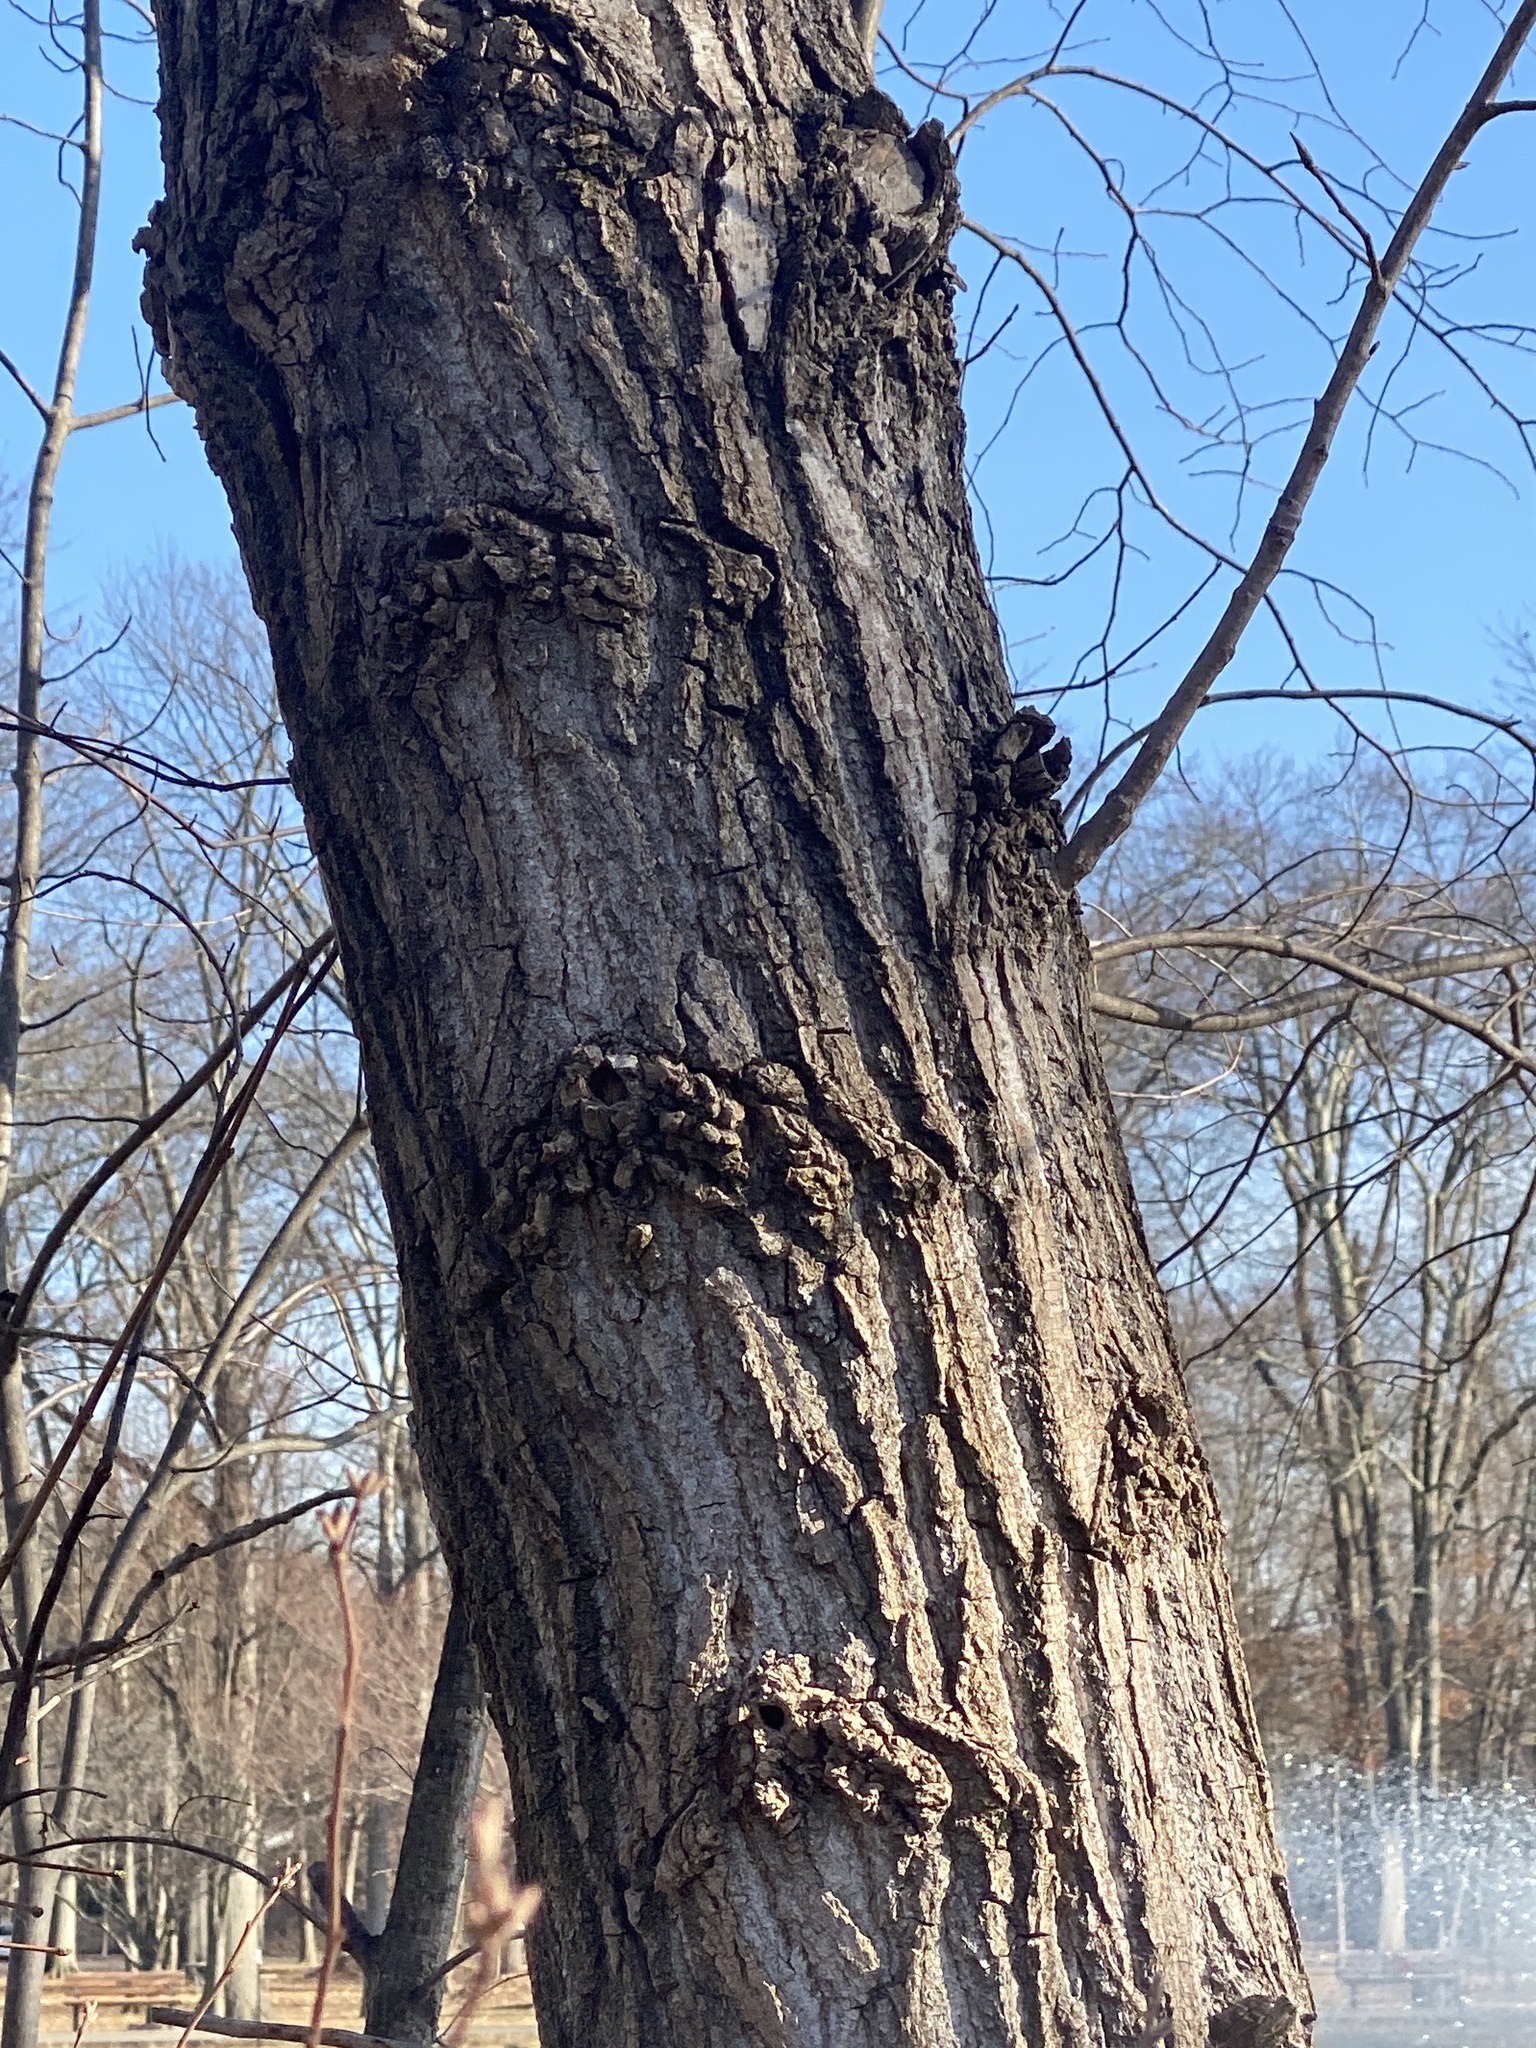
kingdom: Plantae
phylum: Tracheophyta
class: Magnoliopsida
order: Malpighiales
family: Salicaceae
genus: Populus
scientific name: Populus deltoides
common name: Eastern cottonwood
